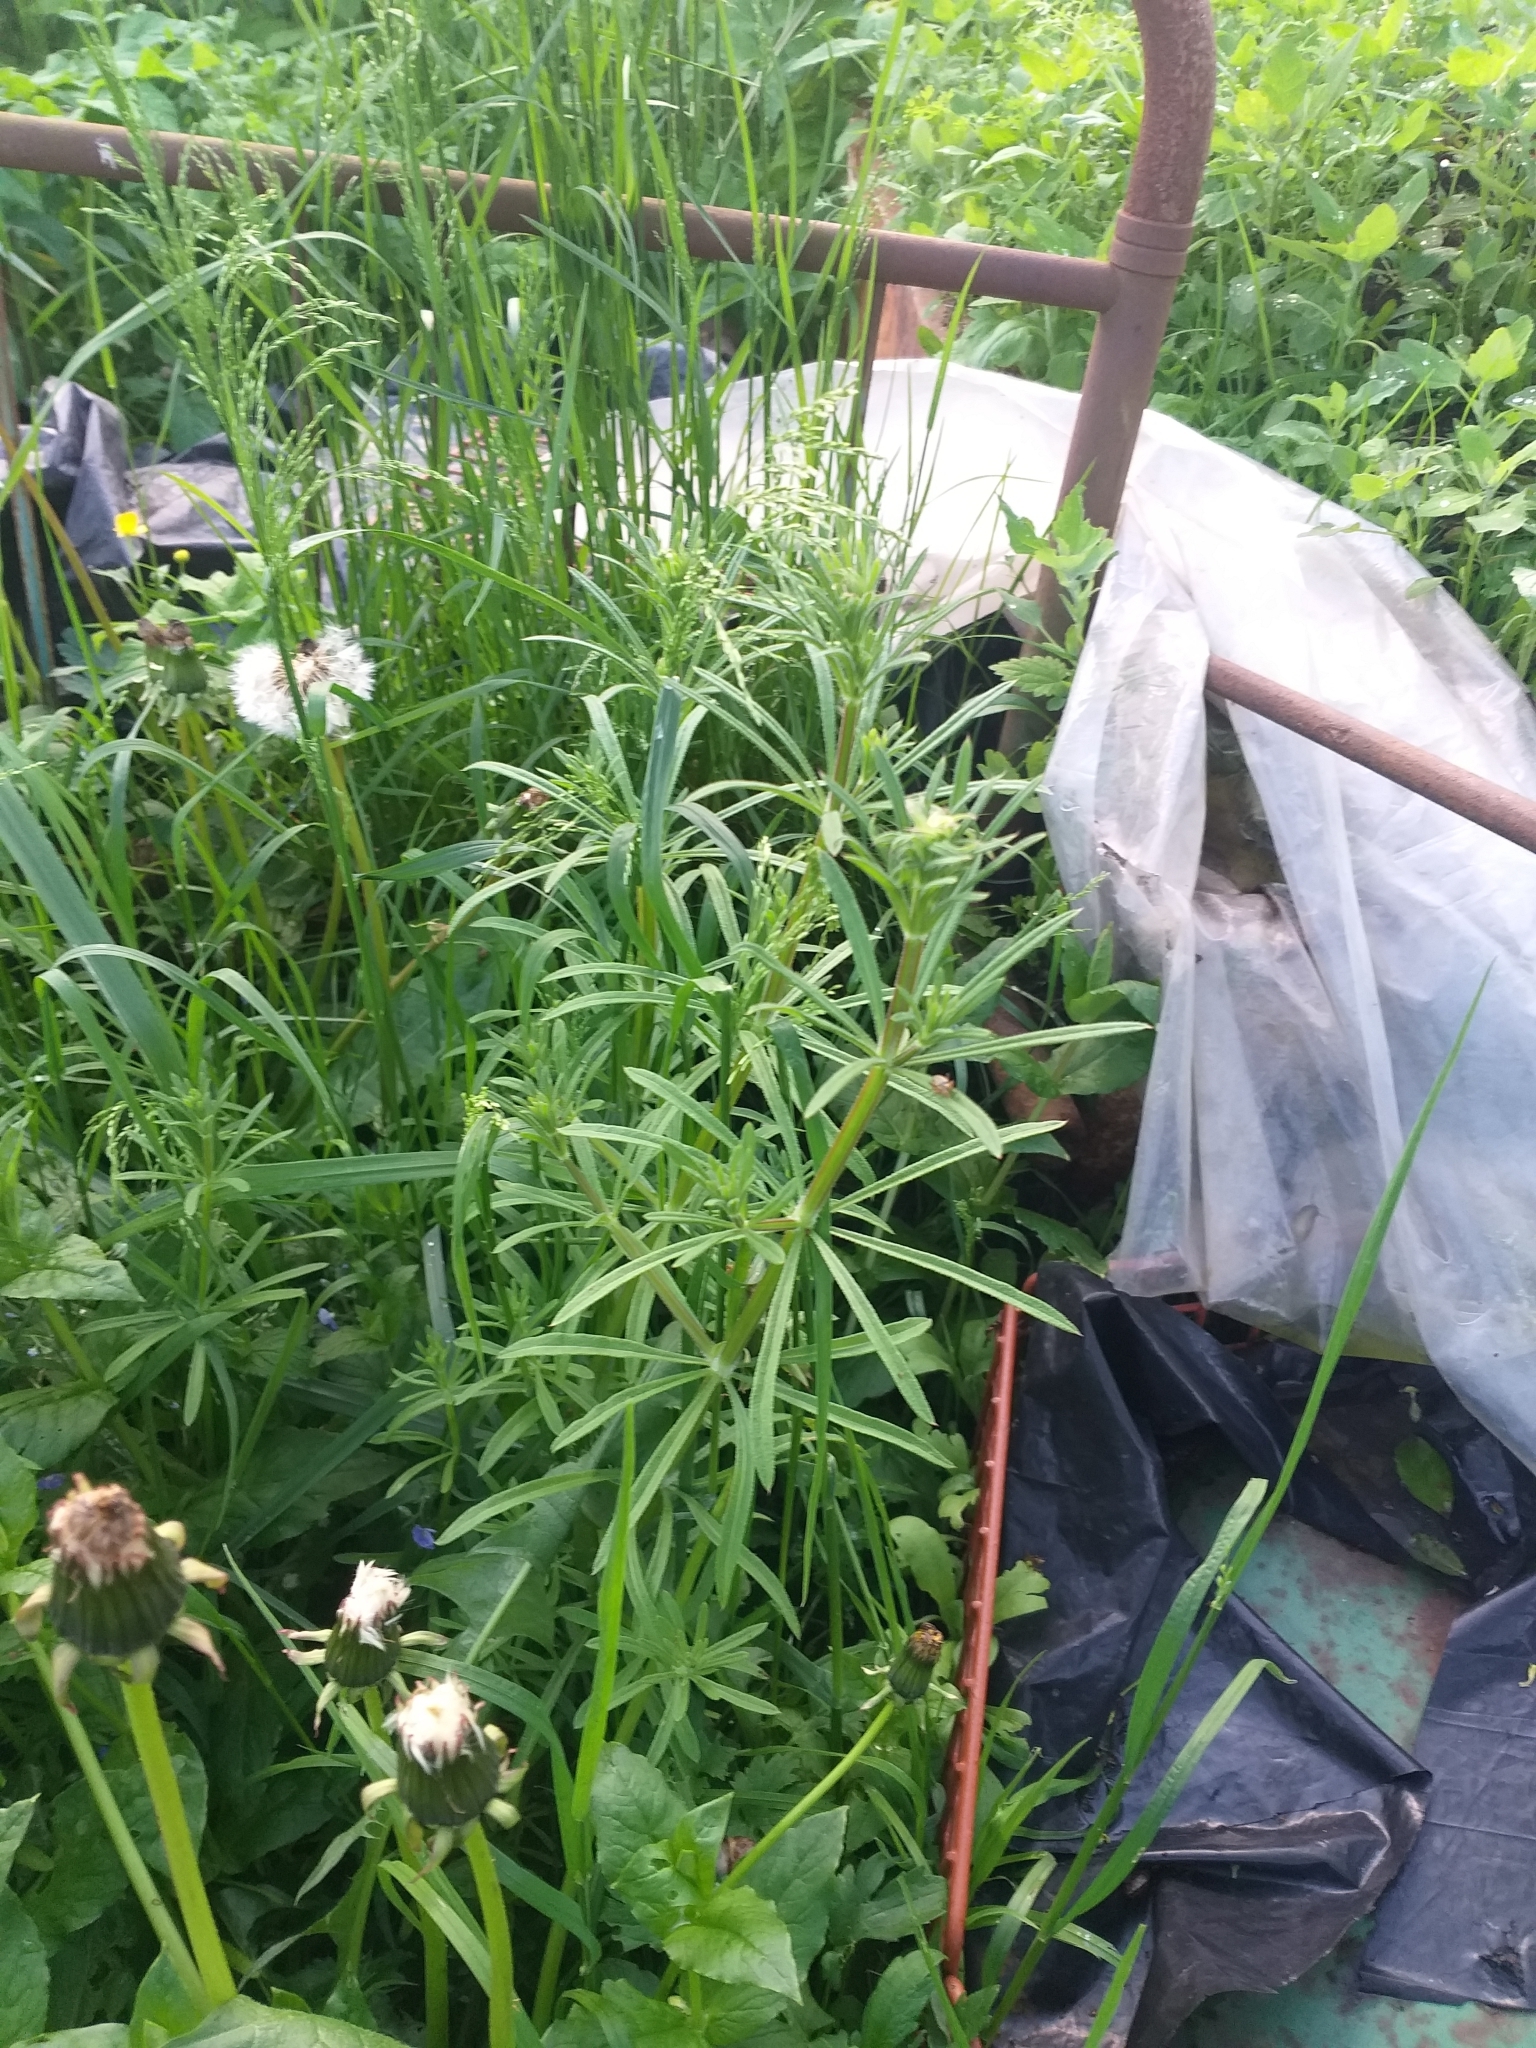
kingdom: Plantae
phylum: Tracheophyta
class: Magnoliopsida
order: Gentianales
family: Rubiaceae
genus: Galium
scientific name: Galium aparine
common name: Cleavers
